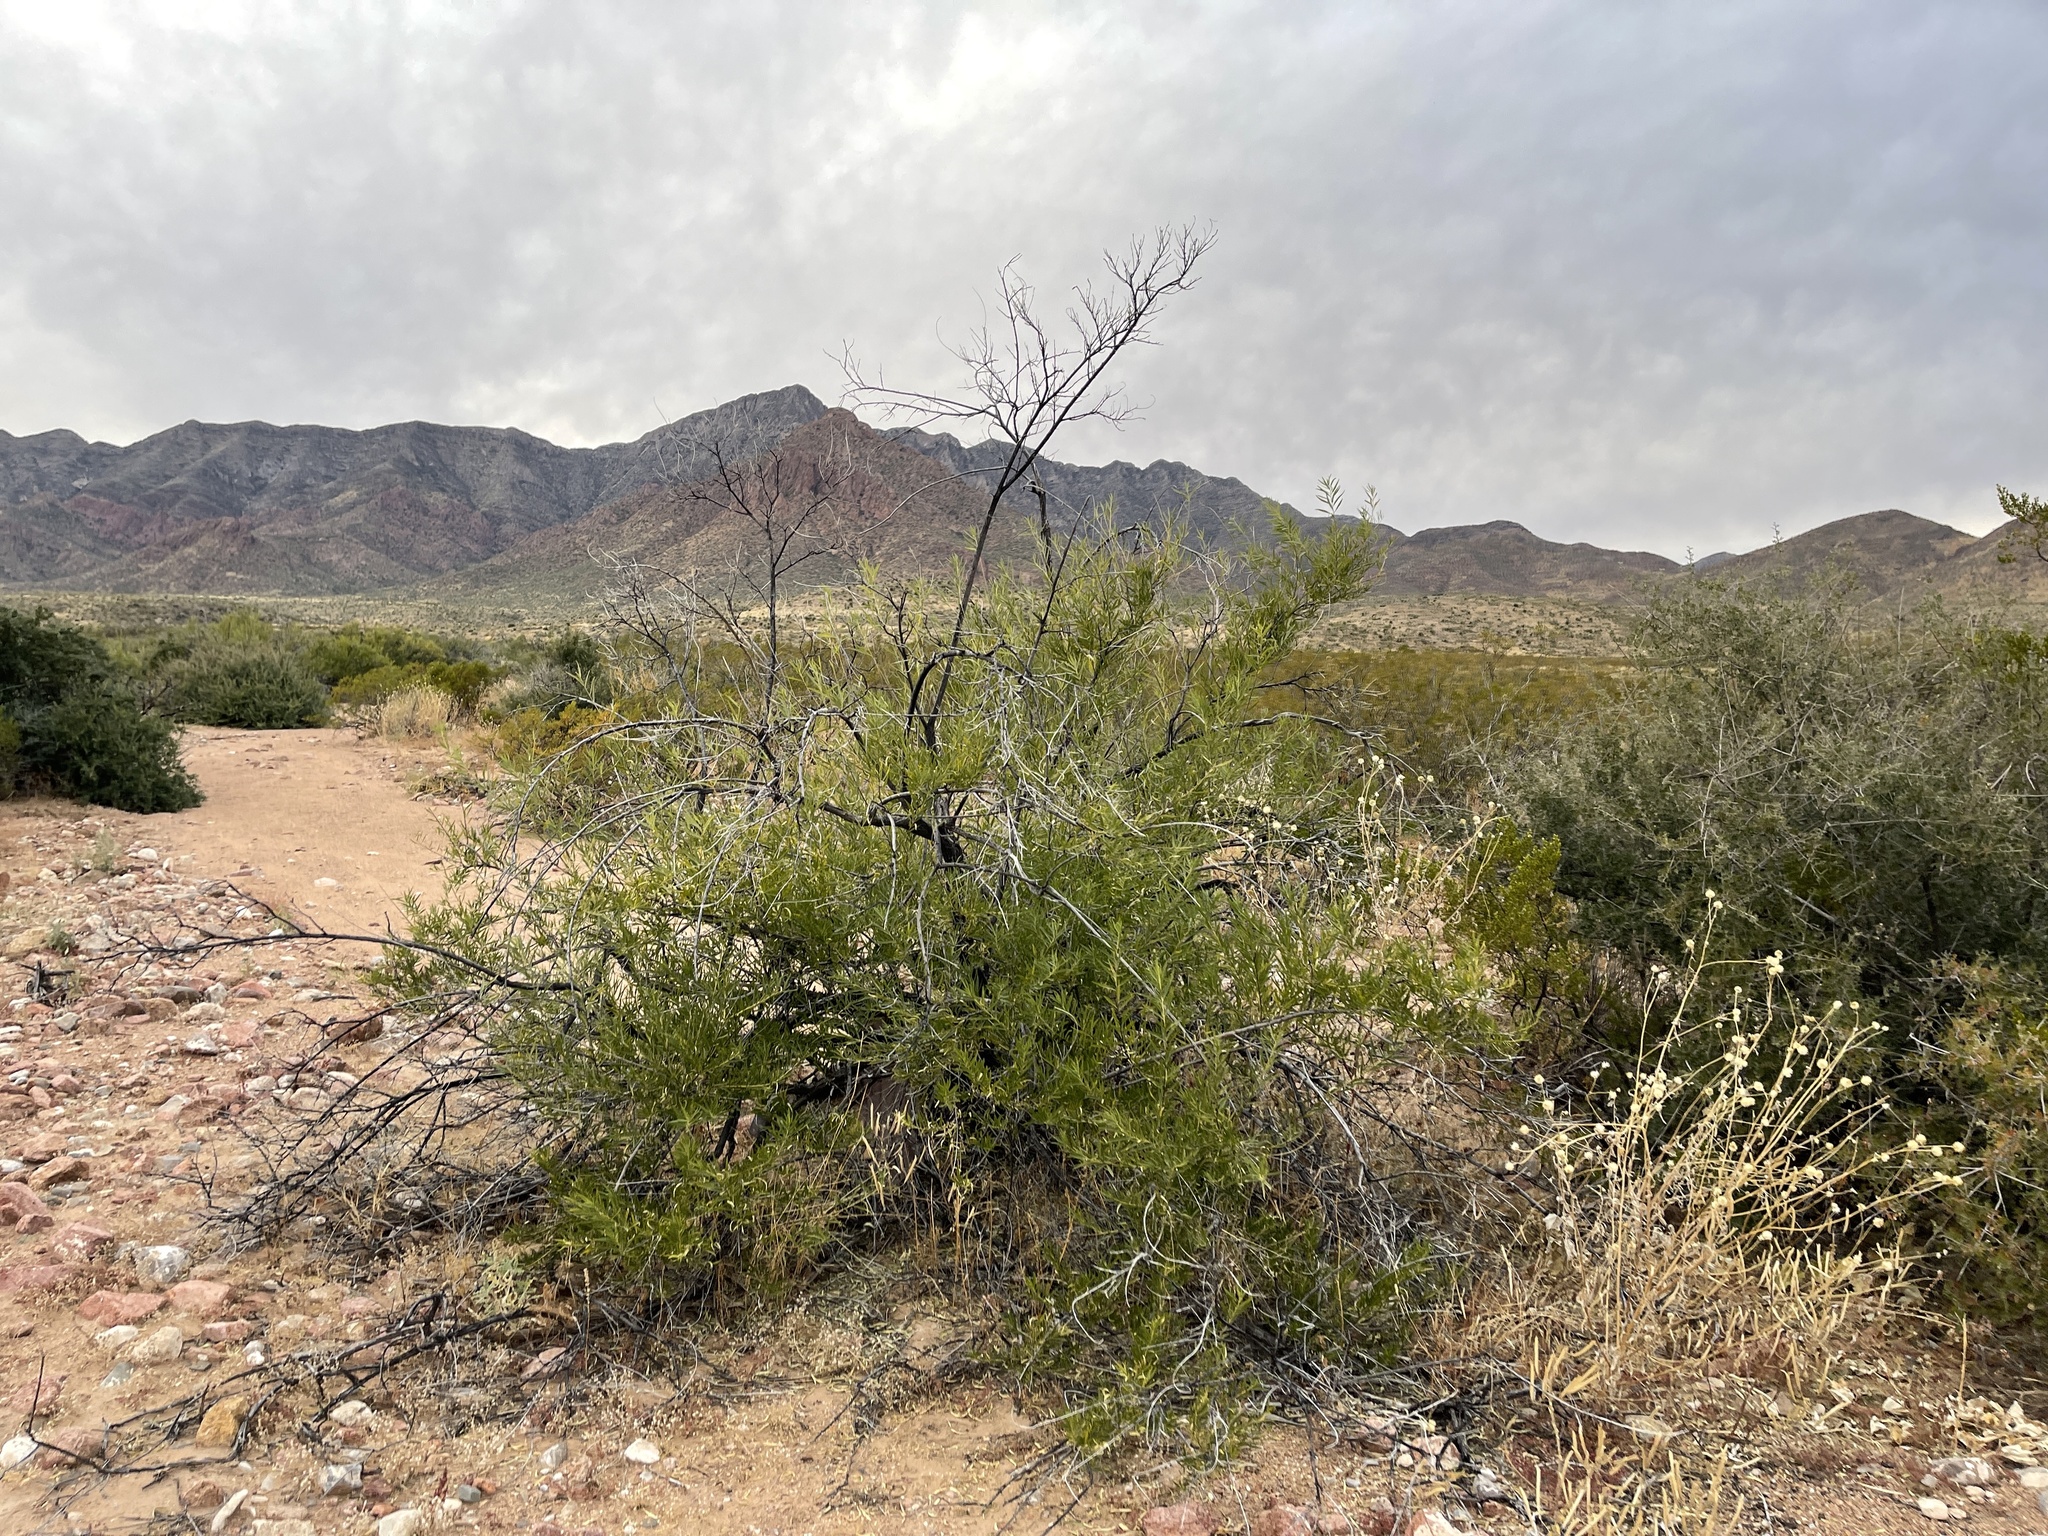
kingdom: Plantae
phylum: Tracheophyta
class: Magnoliopsida
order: Lamiales
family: Bignoniaceae
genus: Chilopsis
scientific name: Chilopsis linearis
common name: Desert-willow
